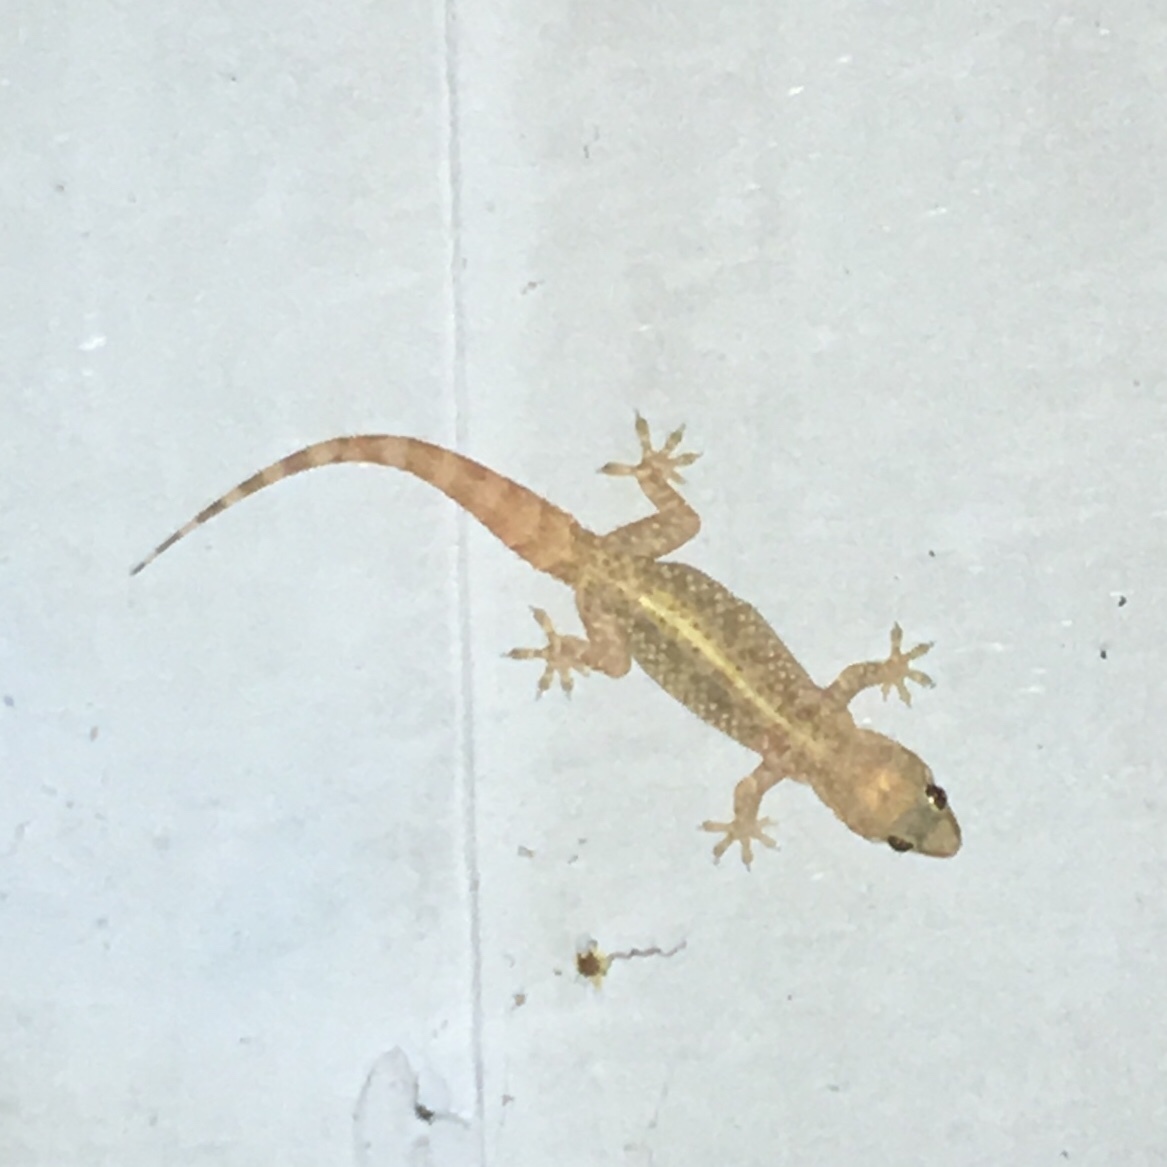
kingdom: Animalia
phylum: Chordata
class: Squamata
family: Gekkonidae
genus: Hemidactylus
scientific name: Hemidactylus turcicus
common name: Turkish gecko
